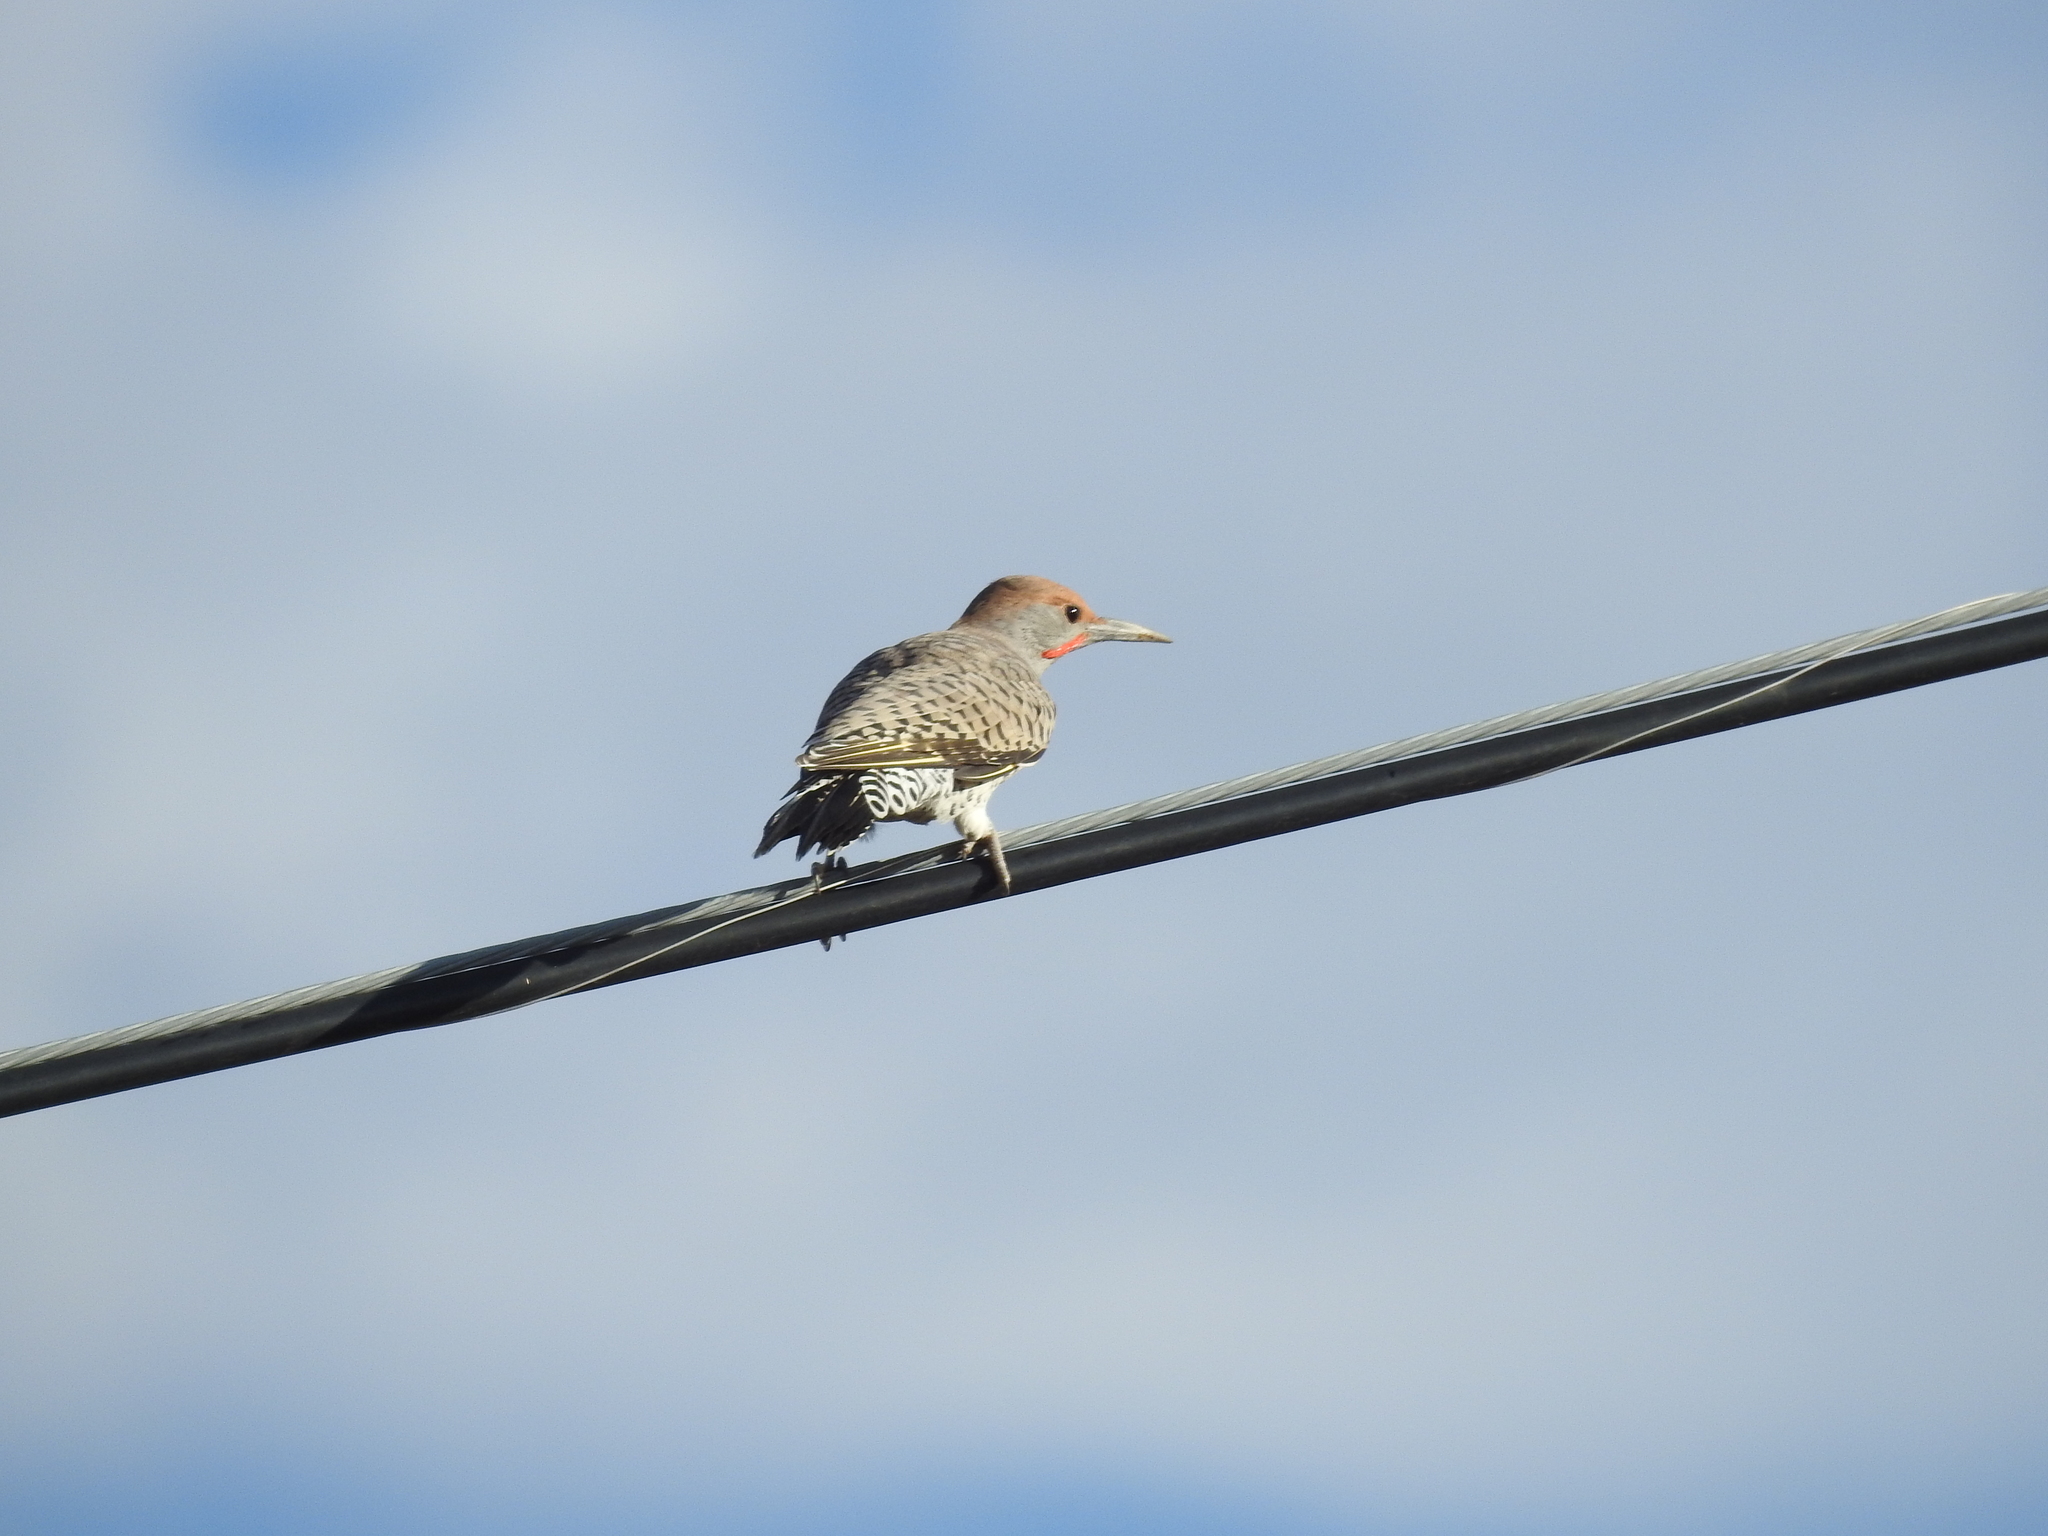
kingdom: Animalia
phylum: Chordata
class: Aves
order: Piciformes
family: Picidae
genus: Colaptes
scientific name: Colaptes chrysoides
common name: Gilded flicker
